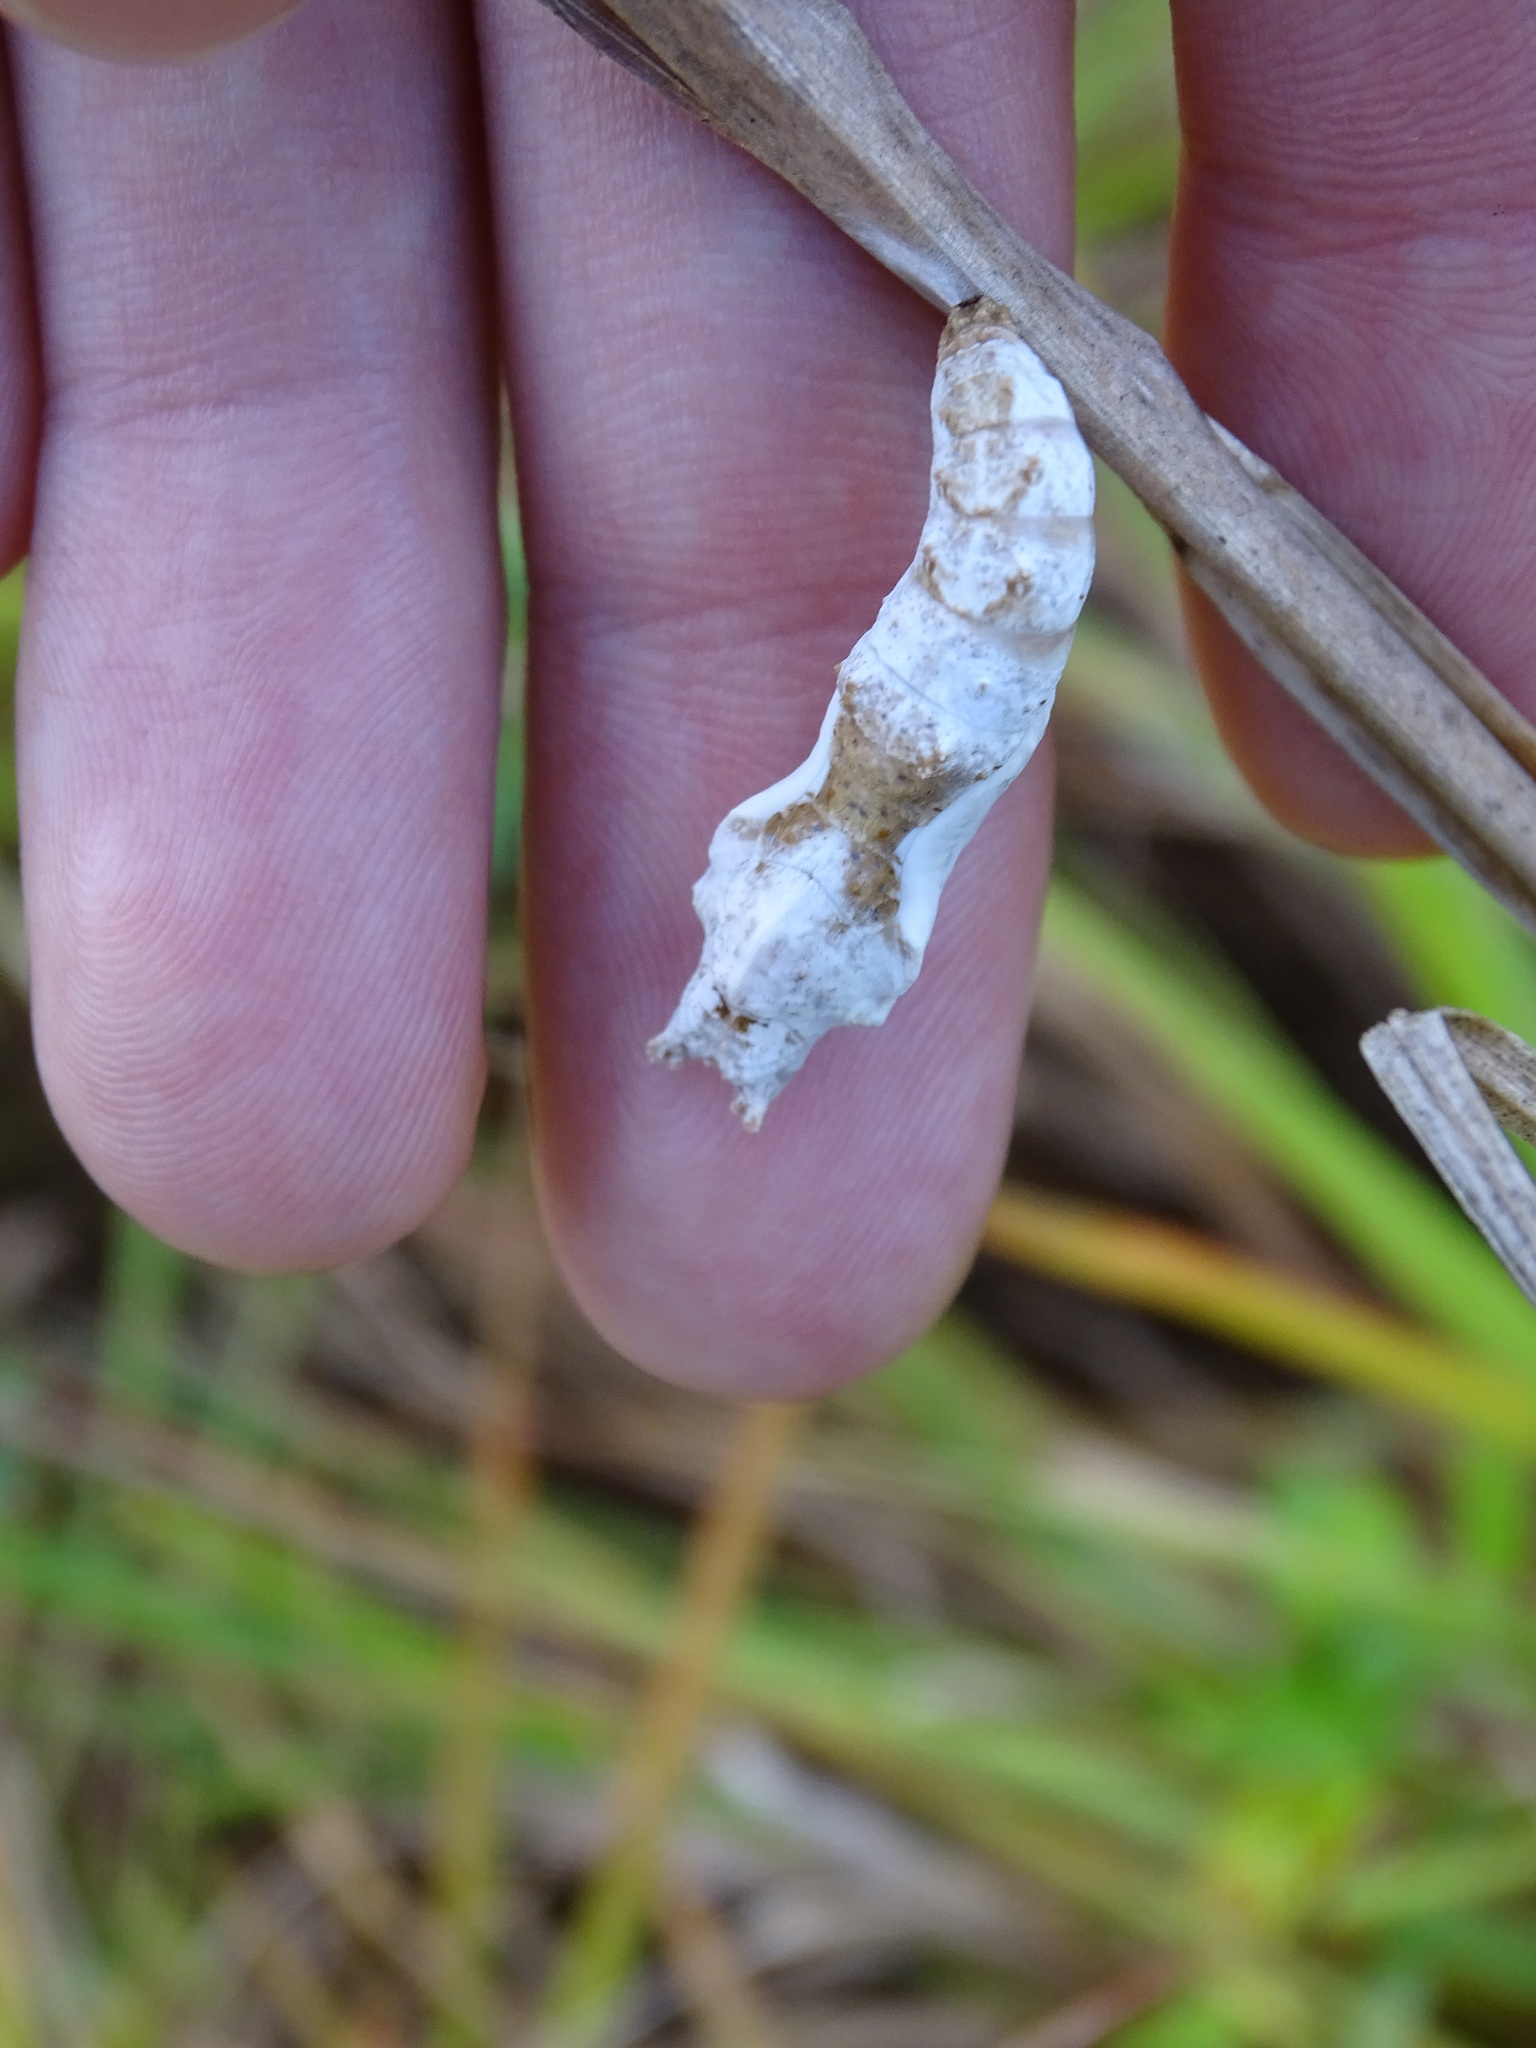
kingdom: Animalia
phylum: Arthropoda
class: Insecta
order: Lepidoptera
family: Nymphalidae
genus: Dione
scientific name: Dione vanillae
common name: Gulf fritillary
